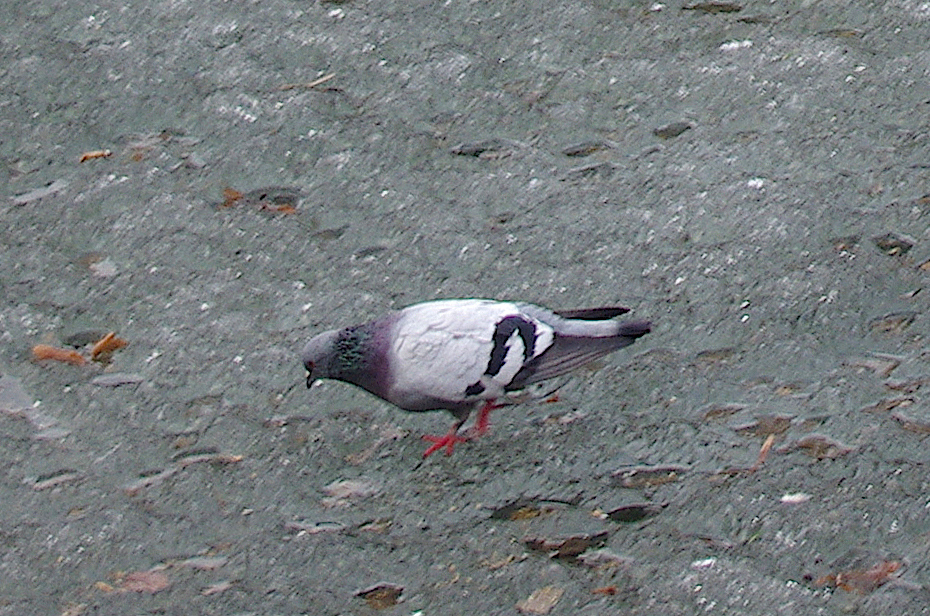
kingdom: Animalia
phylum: Chordata
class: Aves
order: Columbiformes
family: Columbidae
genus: Columba
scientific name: Columba livia
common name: Rock pigeon
